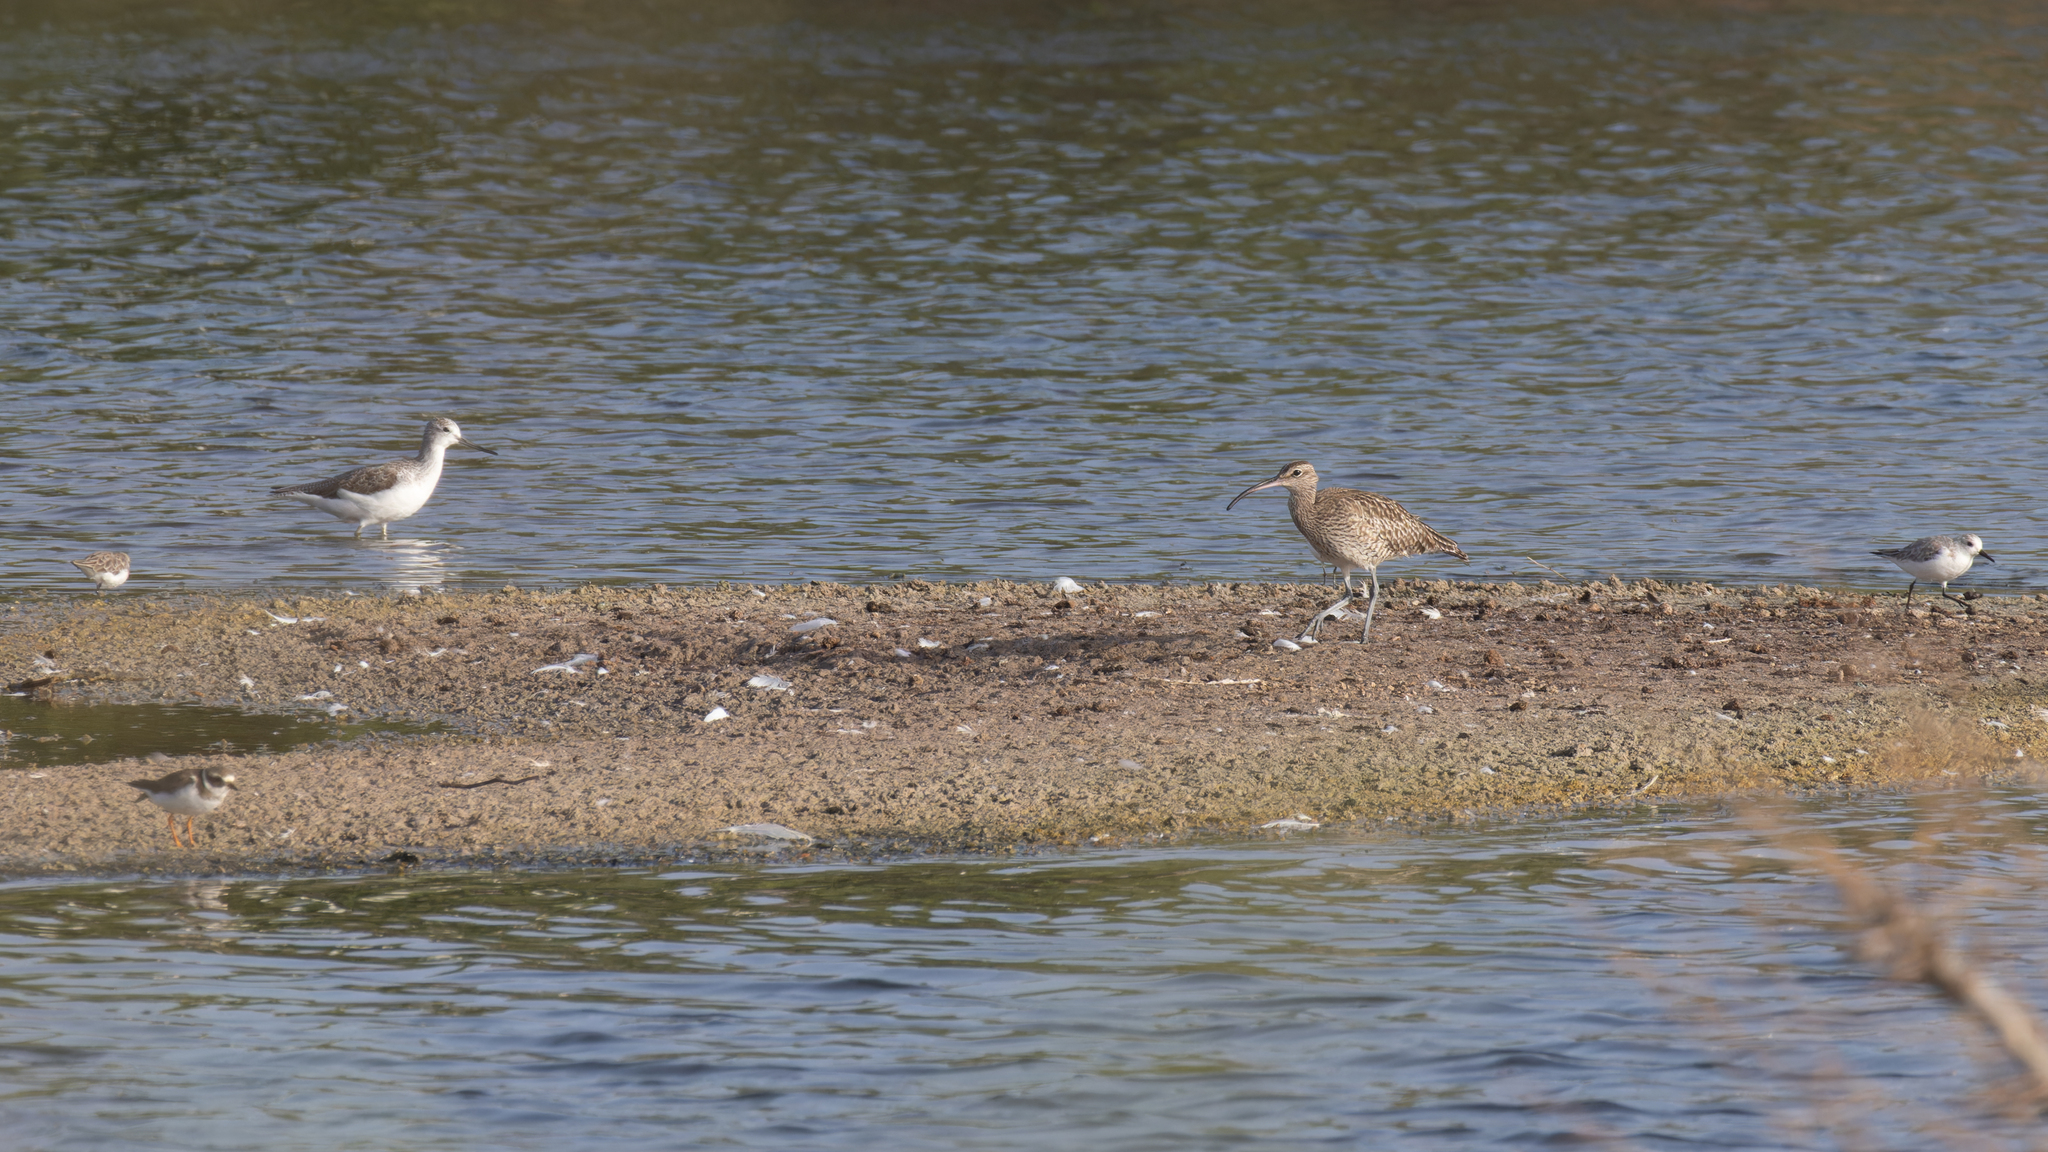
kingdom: Animalia
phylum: Chordata
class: Aves
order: Charadriiformes
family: Scolopacidae
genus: Numenius
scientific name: Numenius phaeopus
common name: Whimbrel
